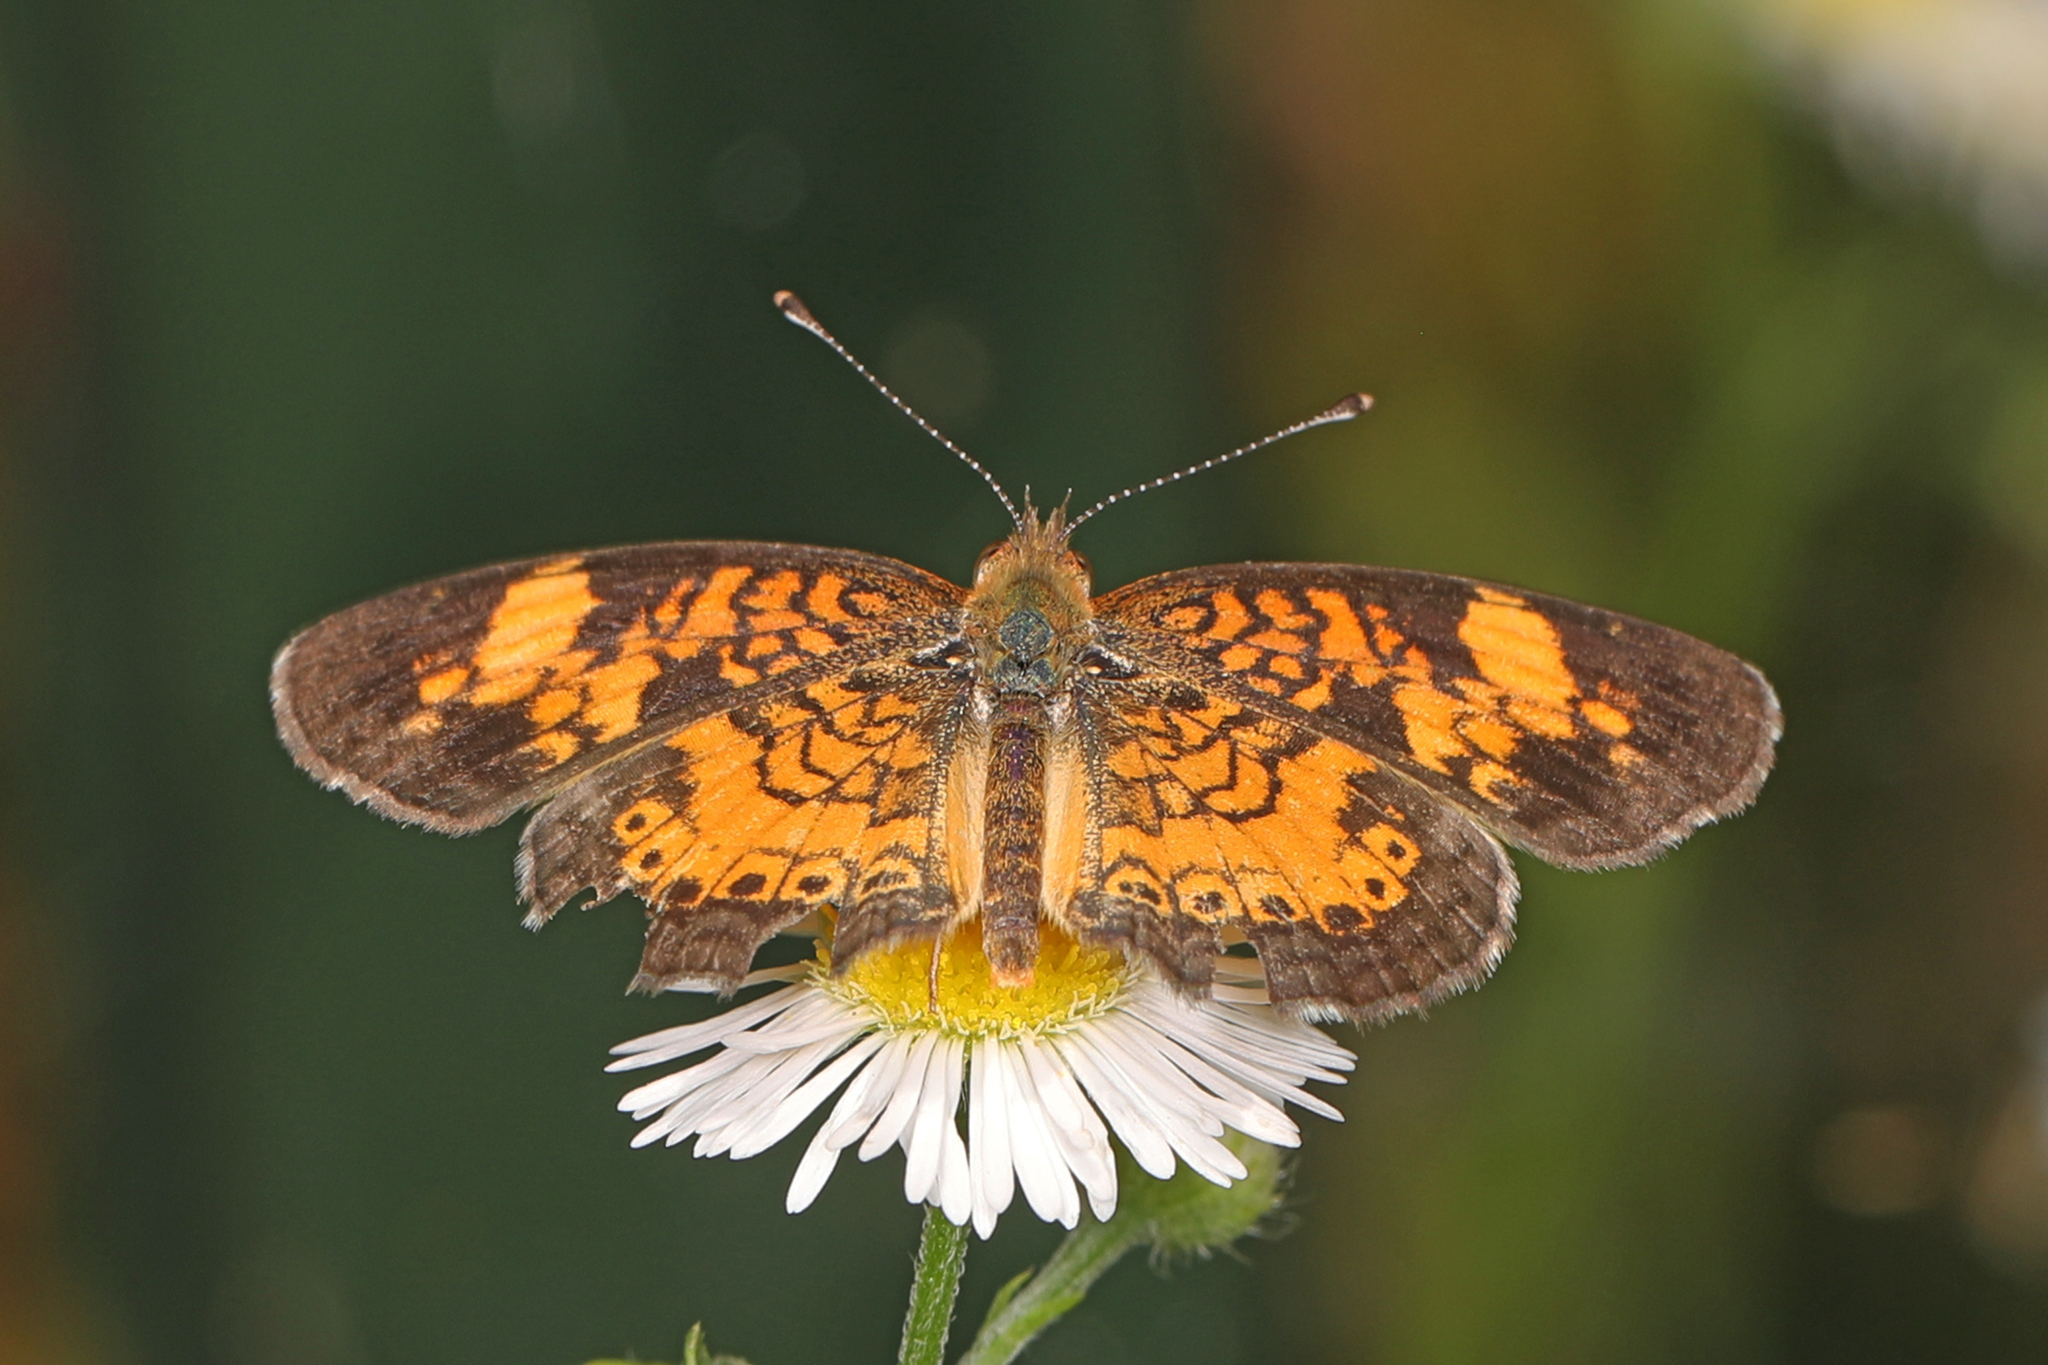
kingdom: Animalia
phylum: Arthropoda
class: Insecta
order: Lepidoptera
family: Nymphalidae
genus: Phyciodes
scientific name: Phyciodes tharos
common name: Pearl crescent
